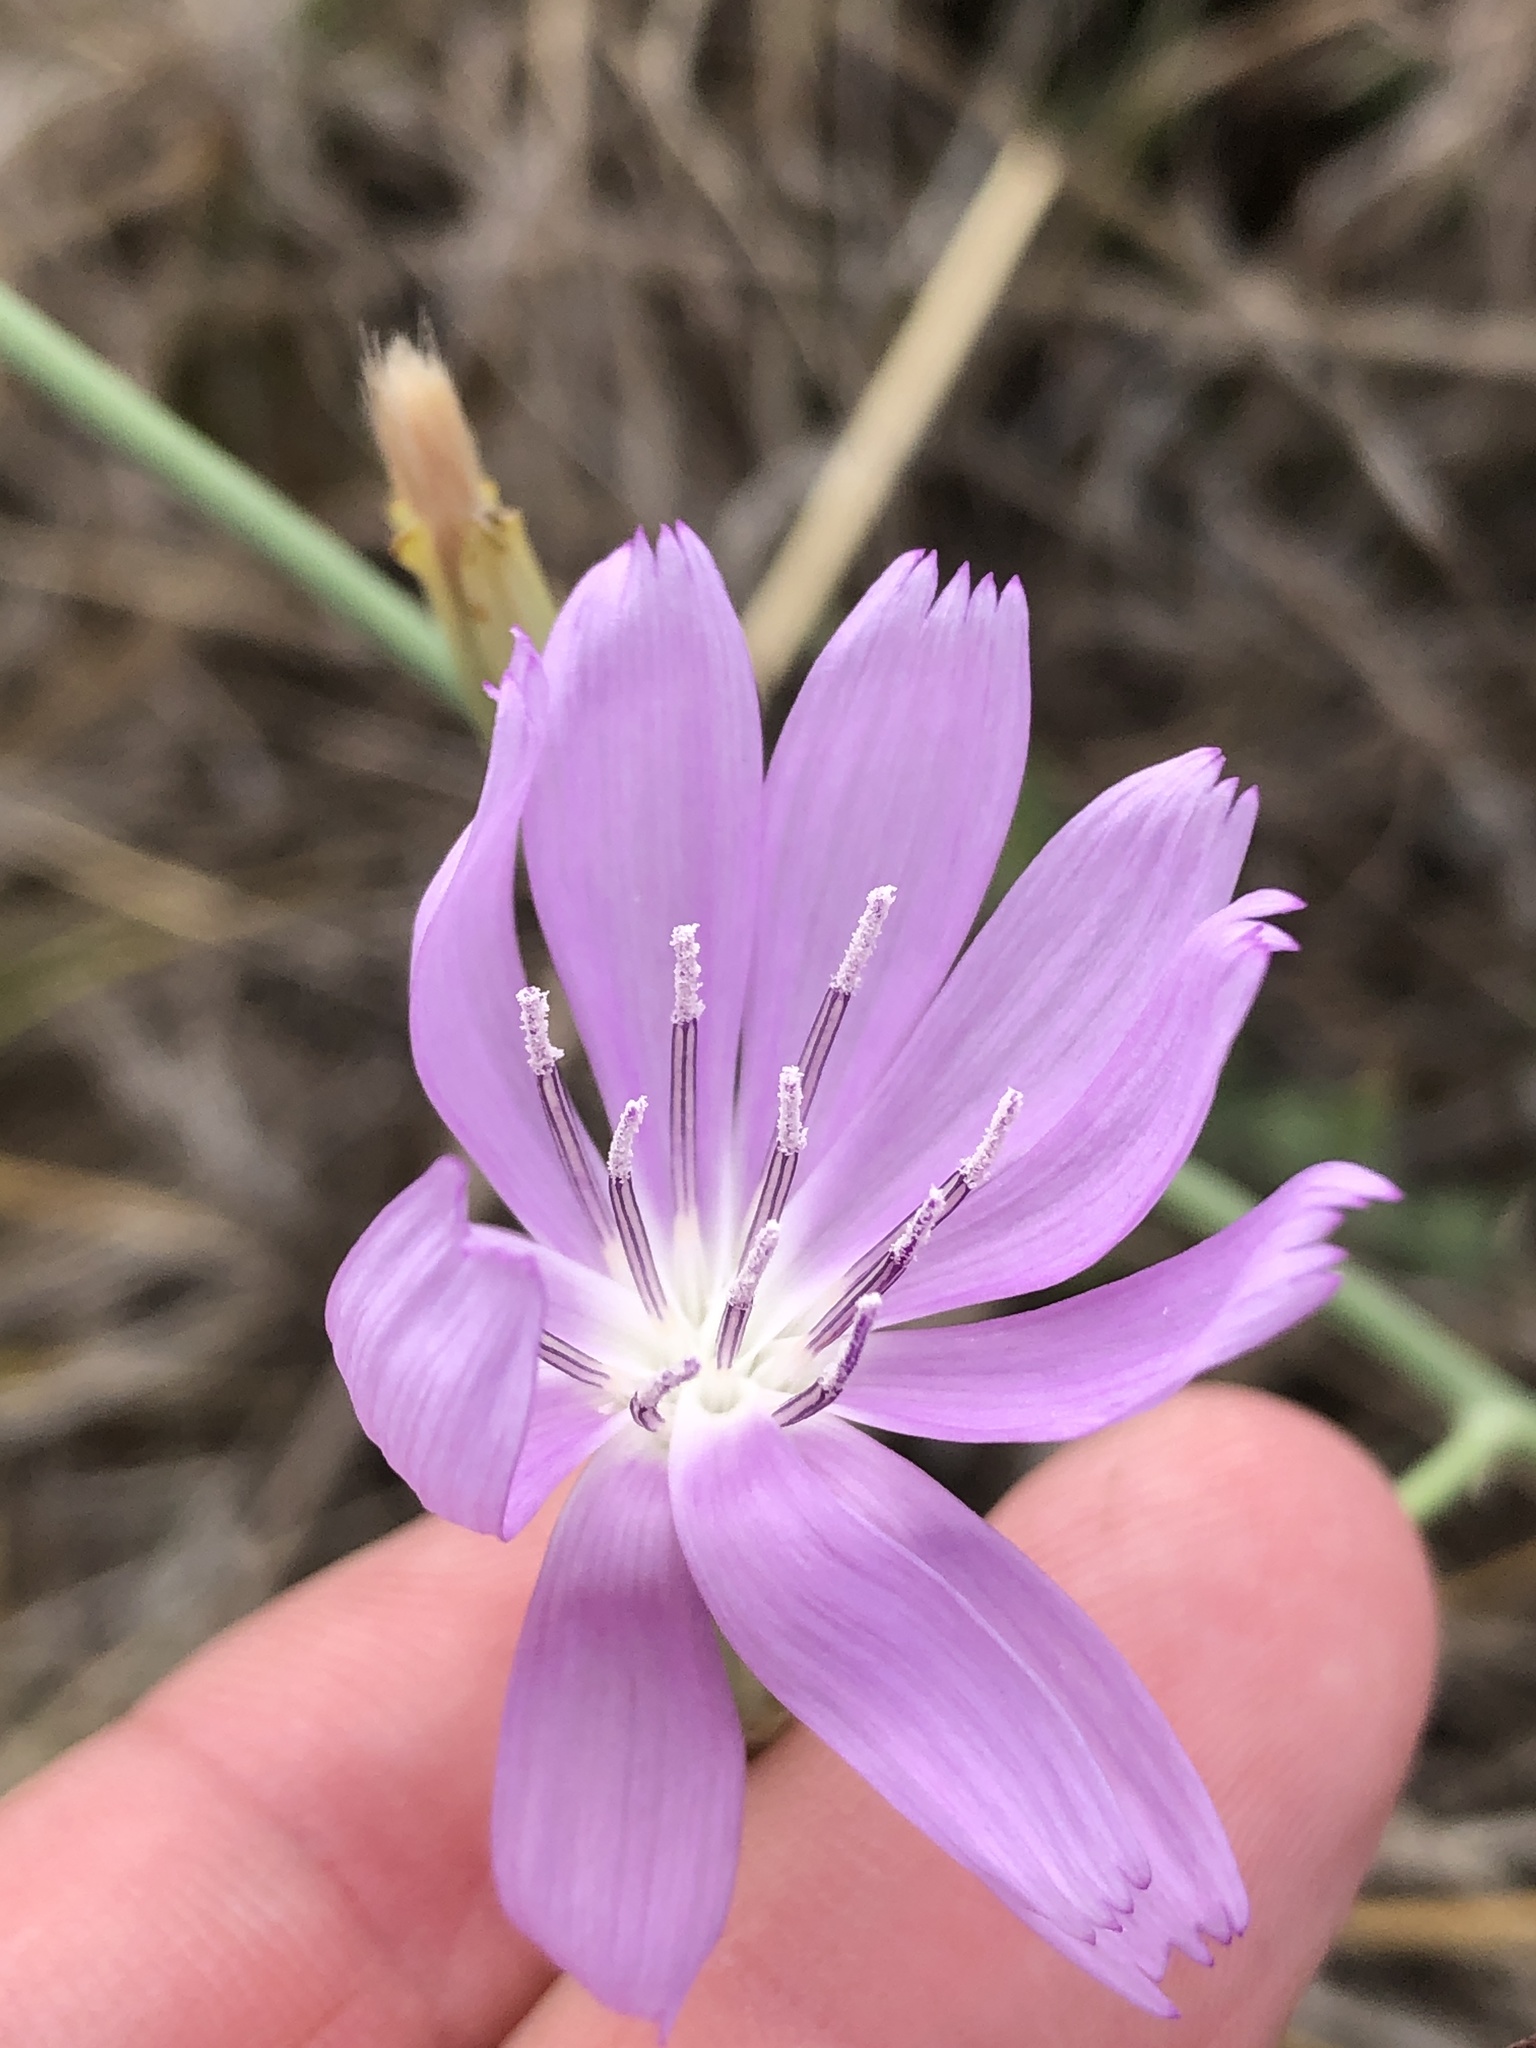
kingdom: Plantae
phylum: Tracheophyta
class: Magnoliopsida
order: Asterales
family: Asteraceae
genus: Lygodesmia
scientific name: Lygodesmia texana
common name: Texas skeleton-plant
